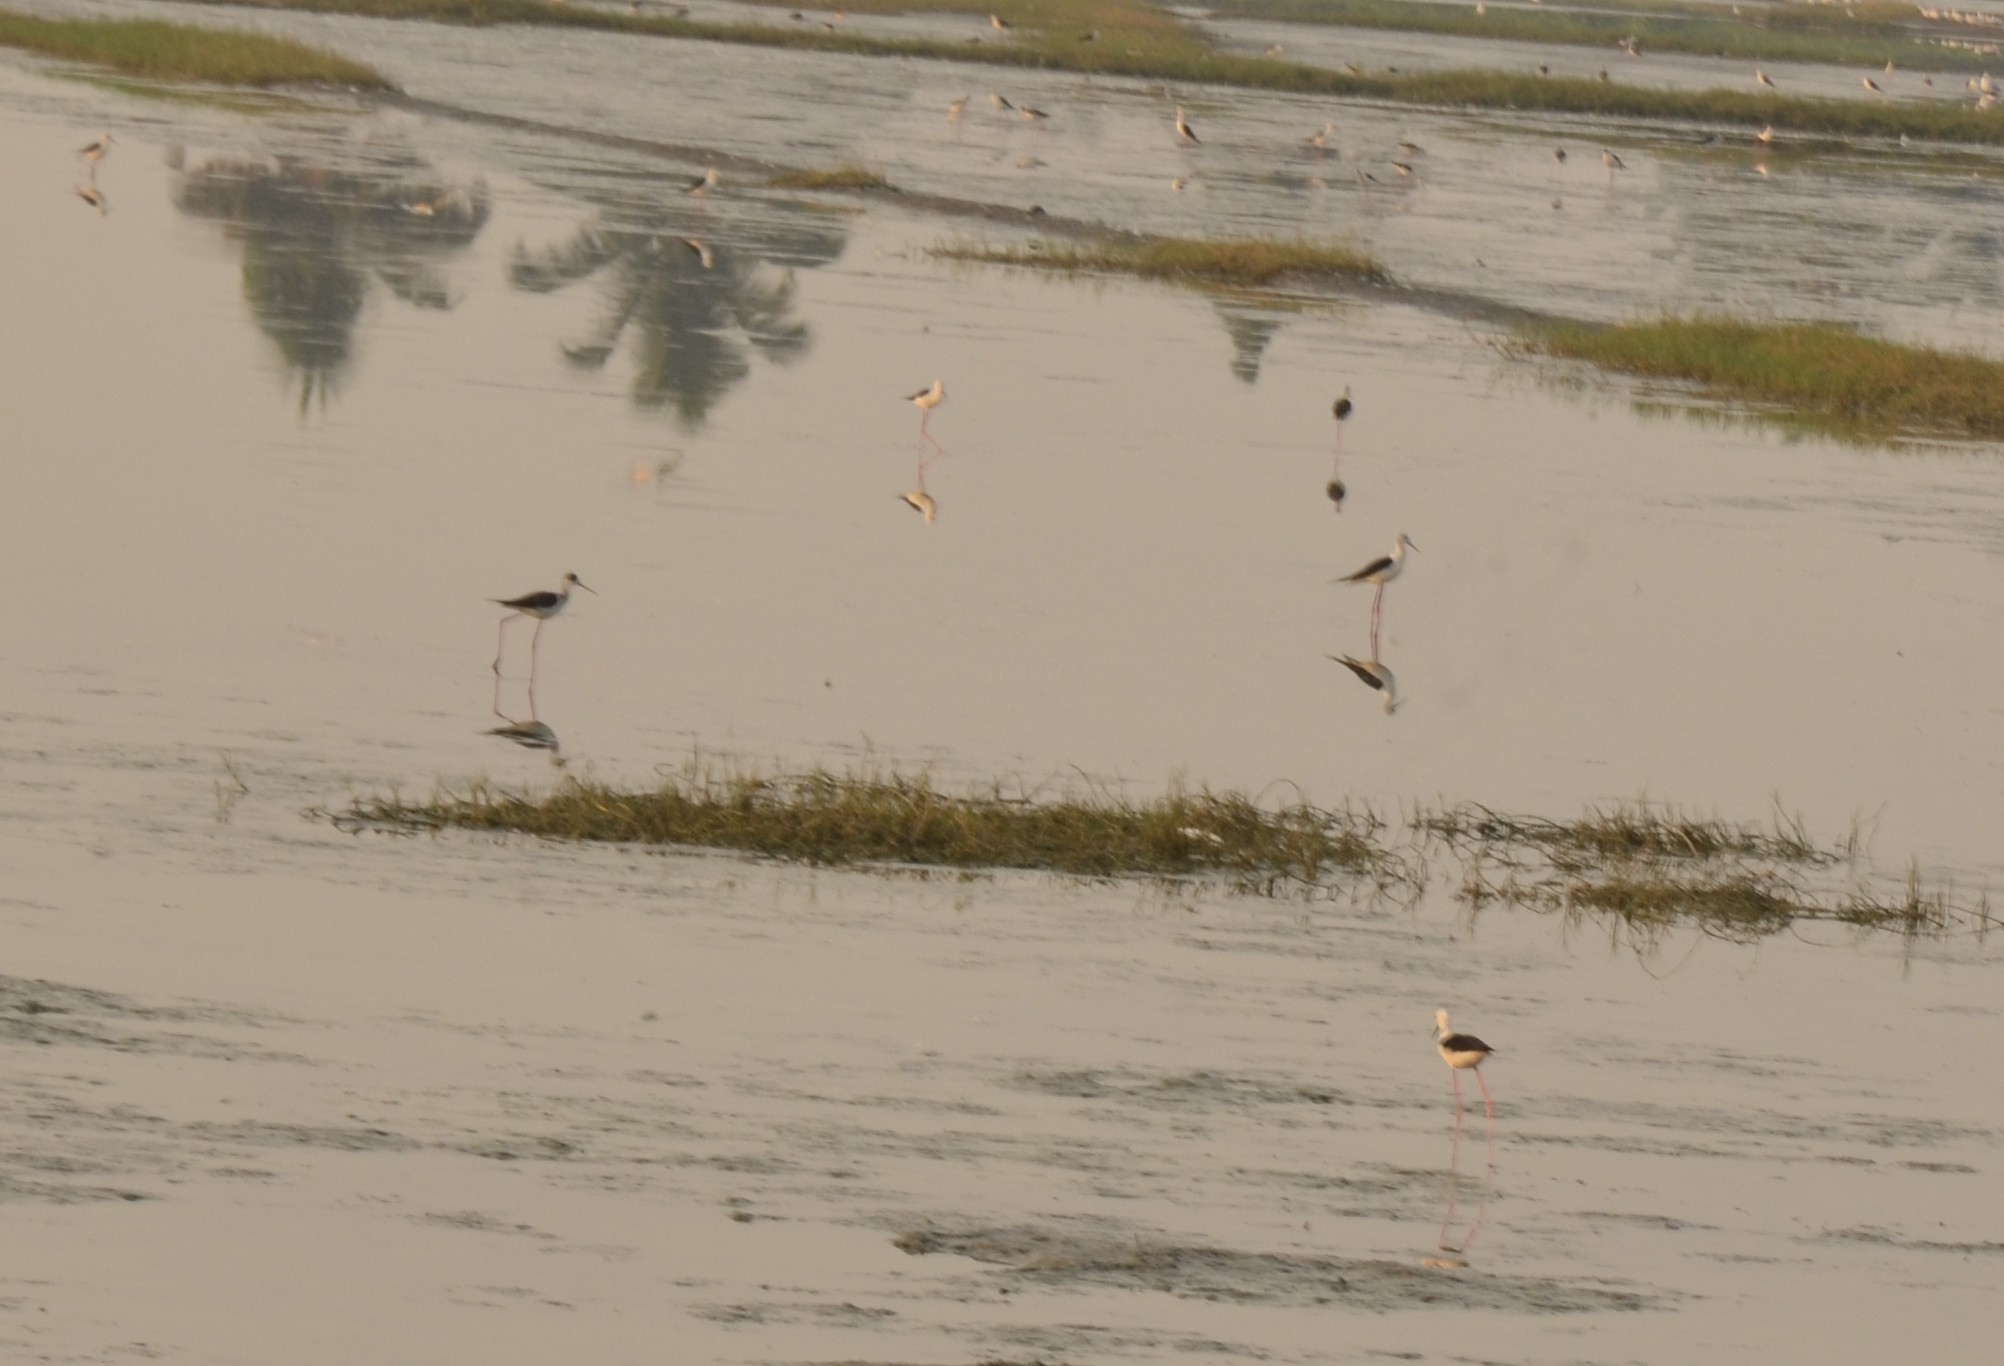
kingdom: Animalia
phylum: Chordata
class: Aves
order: Charadriiformes
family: Recurvirostridae
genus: Himantopus
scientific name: Himantopus himantopus
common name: Black-winged stilt
